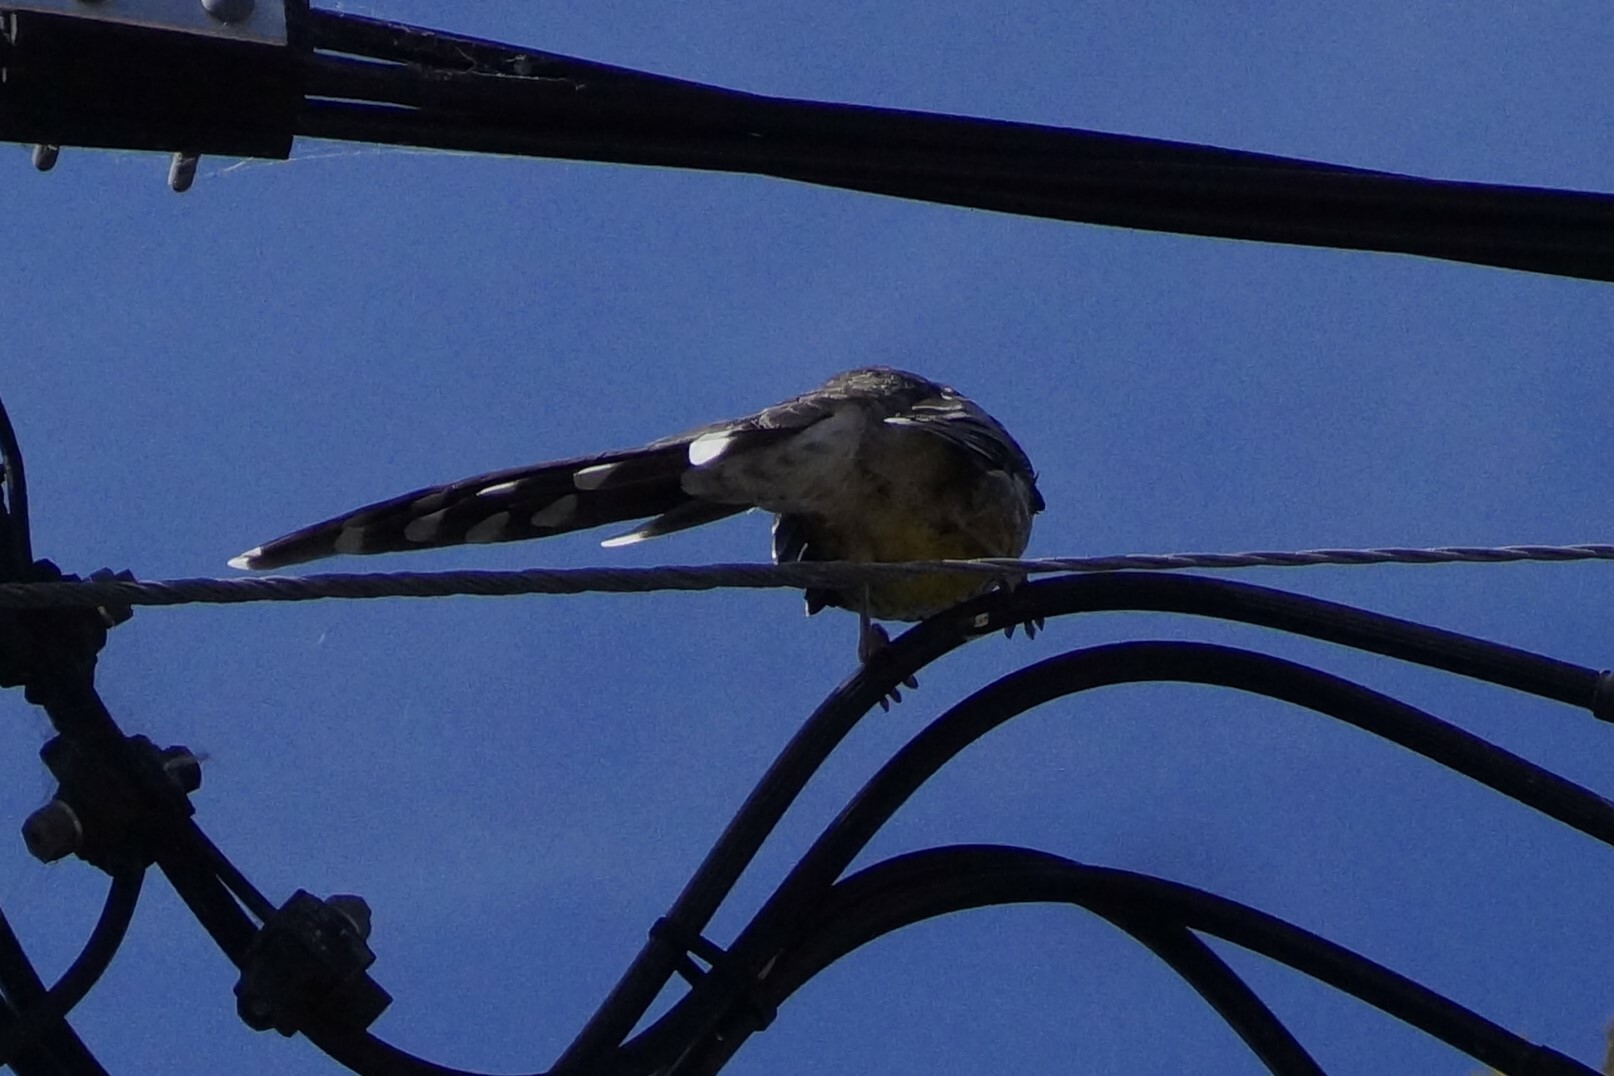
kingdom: Animalia
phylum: Chordata
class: Aves
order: Passeriformes
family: Meliphagidae
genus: Anthochaera
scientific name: Anthochaera paradoxa
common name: Yellow wattlebird
